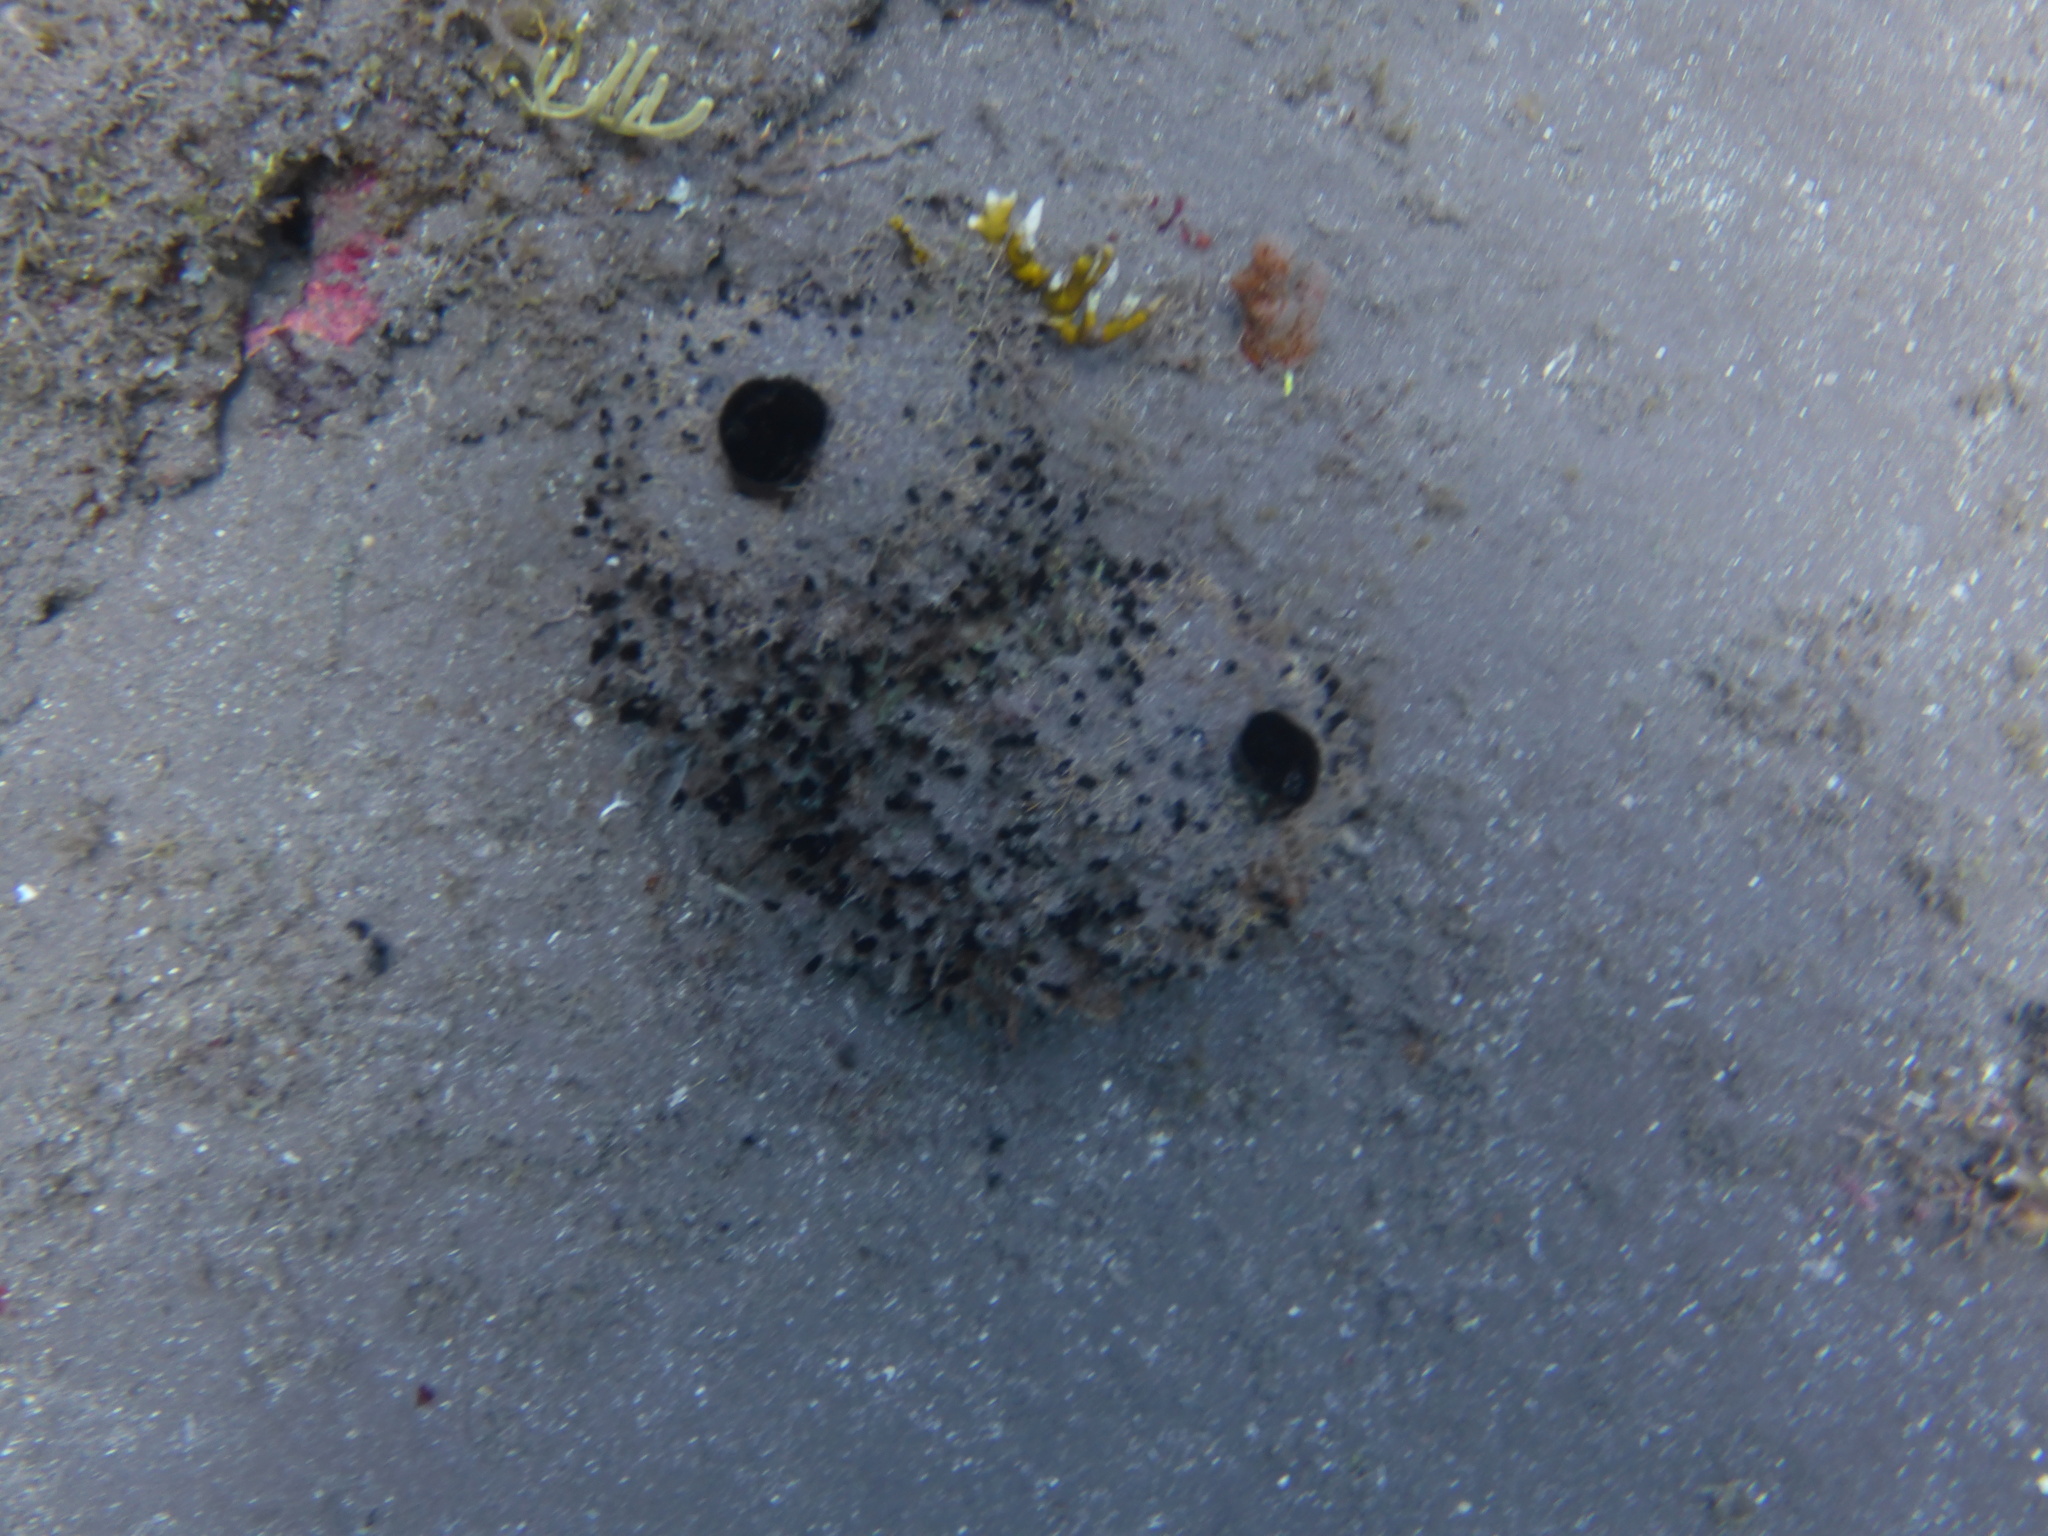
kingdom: Animalia
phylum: Porifera
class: Demospongiae
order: Poecilosclerida
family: Coelocarteriidae
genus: Coelocarteria
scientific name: Coelocarteria bartschi
